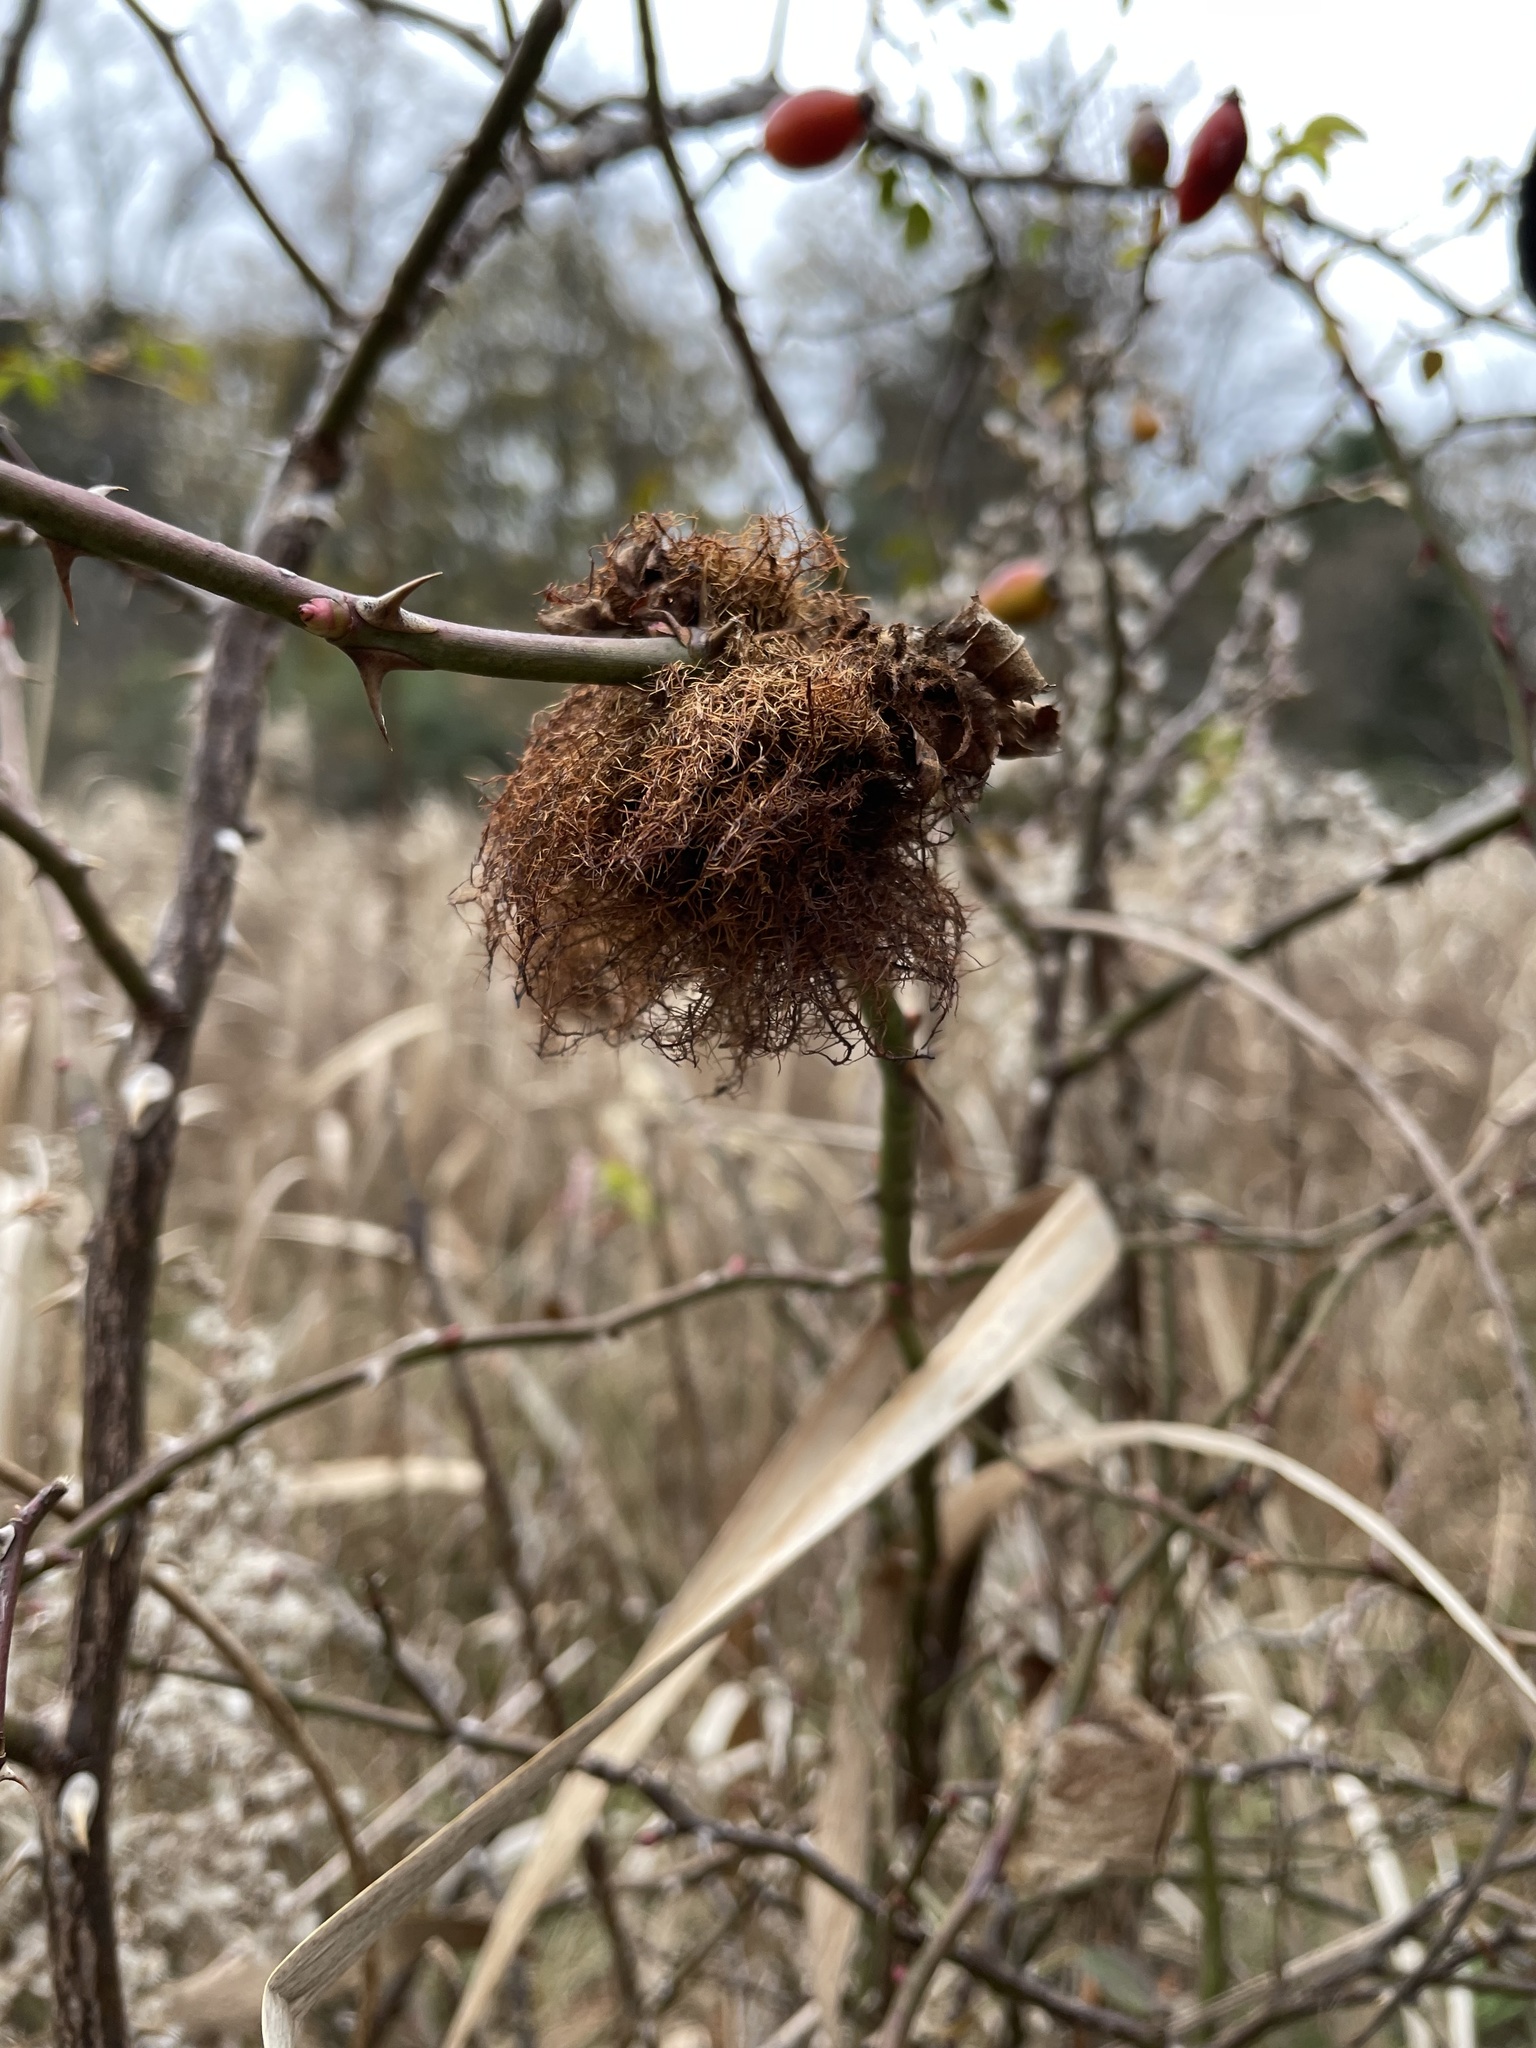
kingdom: Animalia
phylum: Arthropoda
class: Insecta
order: Hymenoptera
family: Cynipidae
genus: Diplolepis
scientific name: Diplolepis rosae
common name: Bedeguar gall
